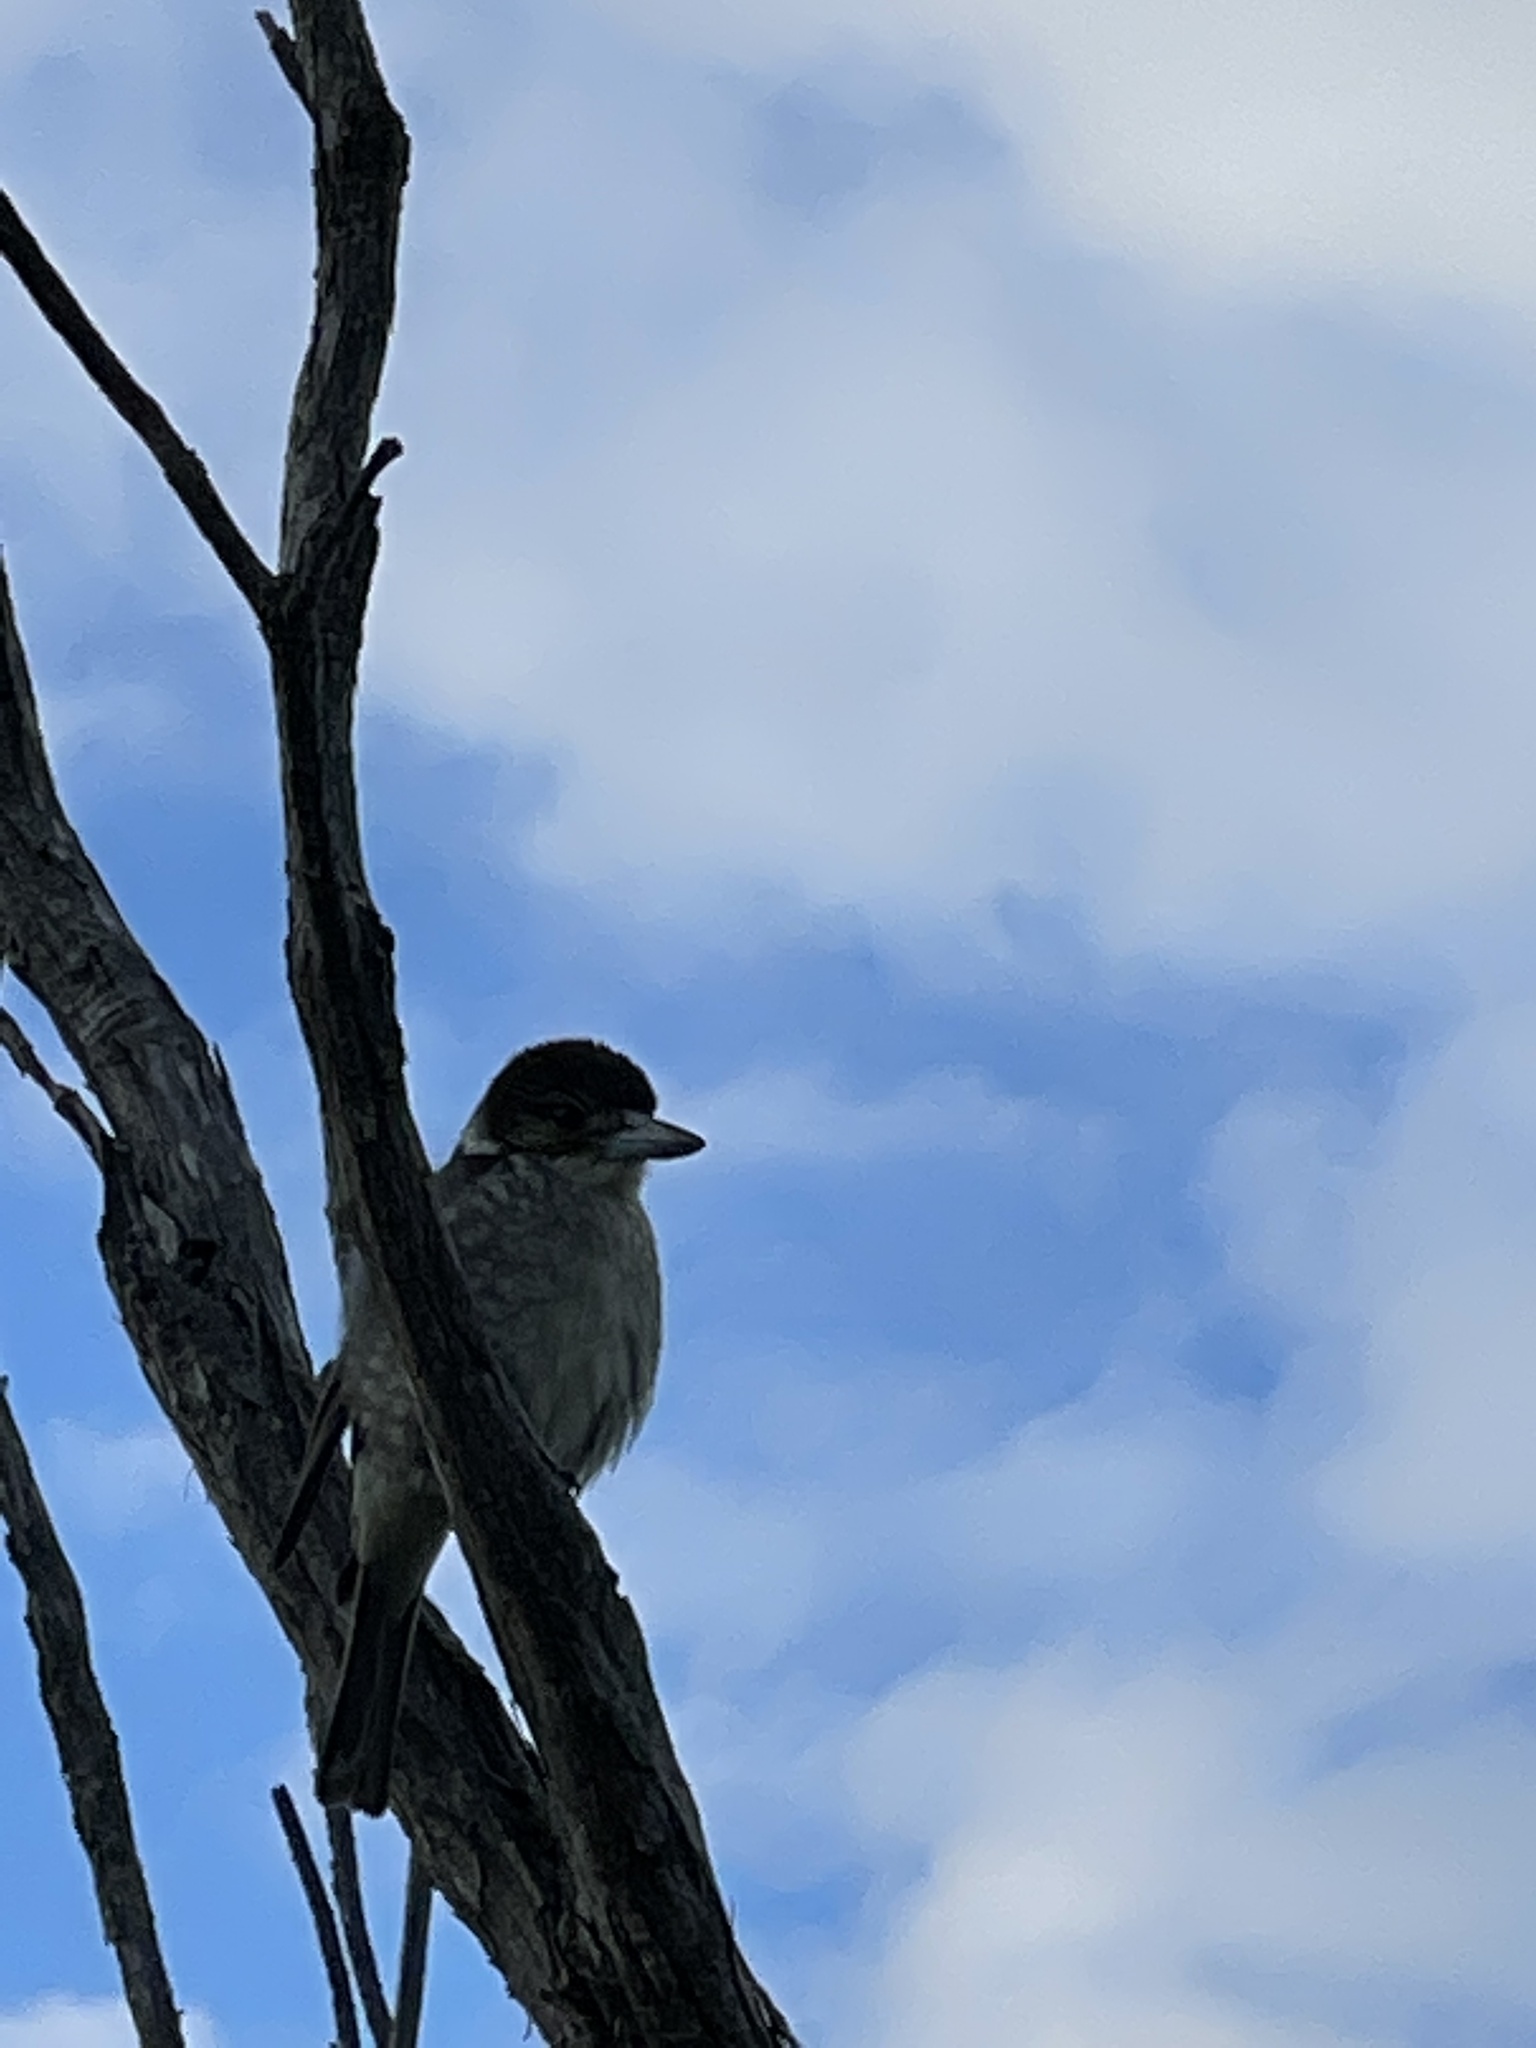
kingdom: Animalia
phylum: Chordata
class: Aves
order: Passeriformes
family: Cracticidae
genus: Cracticus
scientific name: Cracticus torquatus
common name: Grey butcherbird
